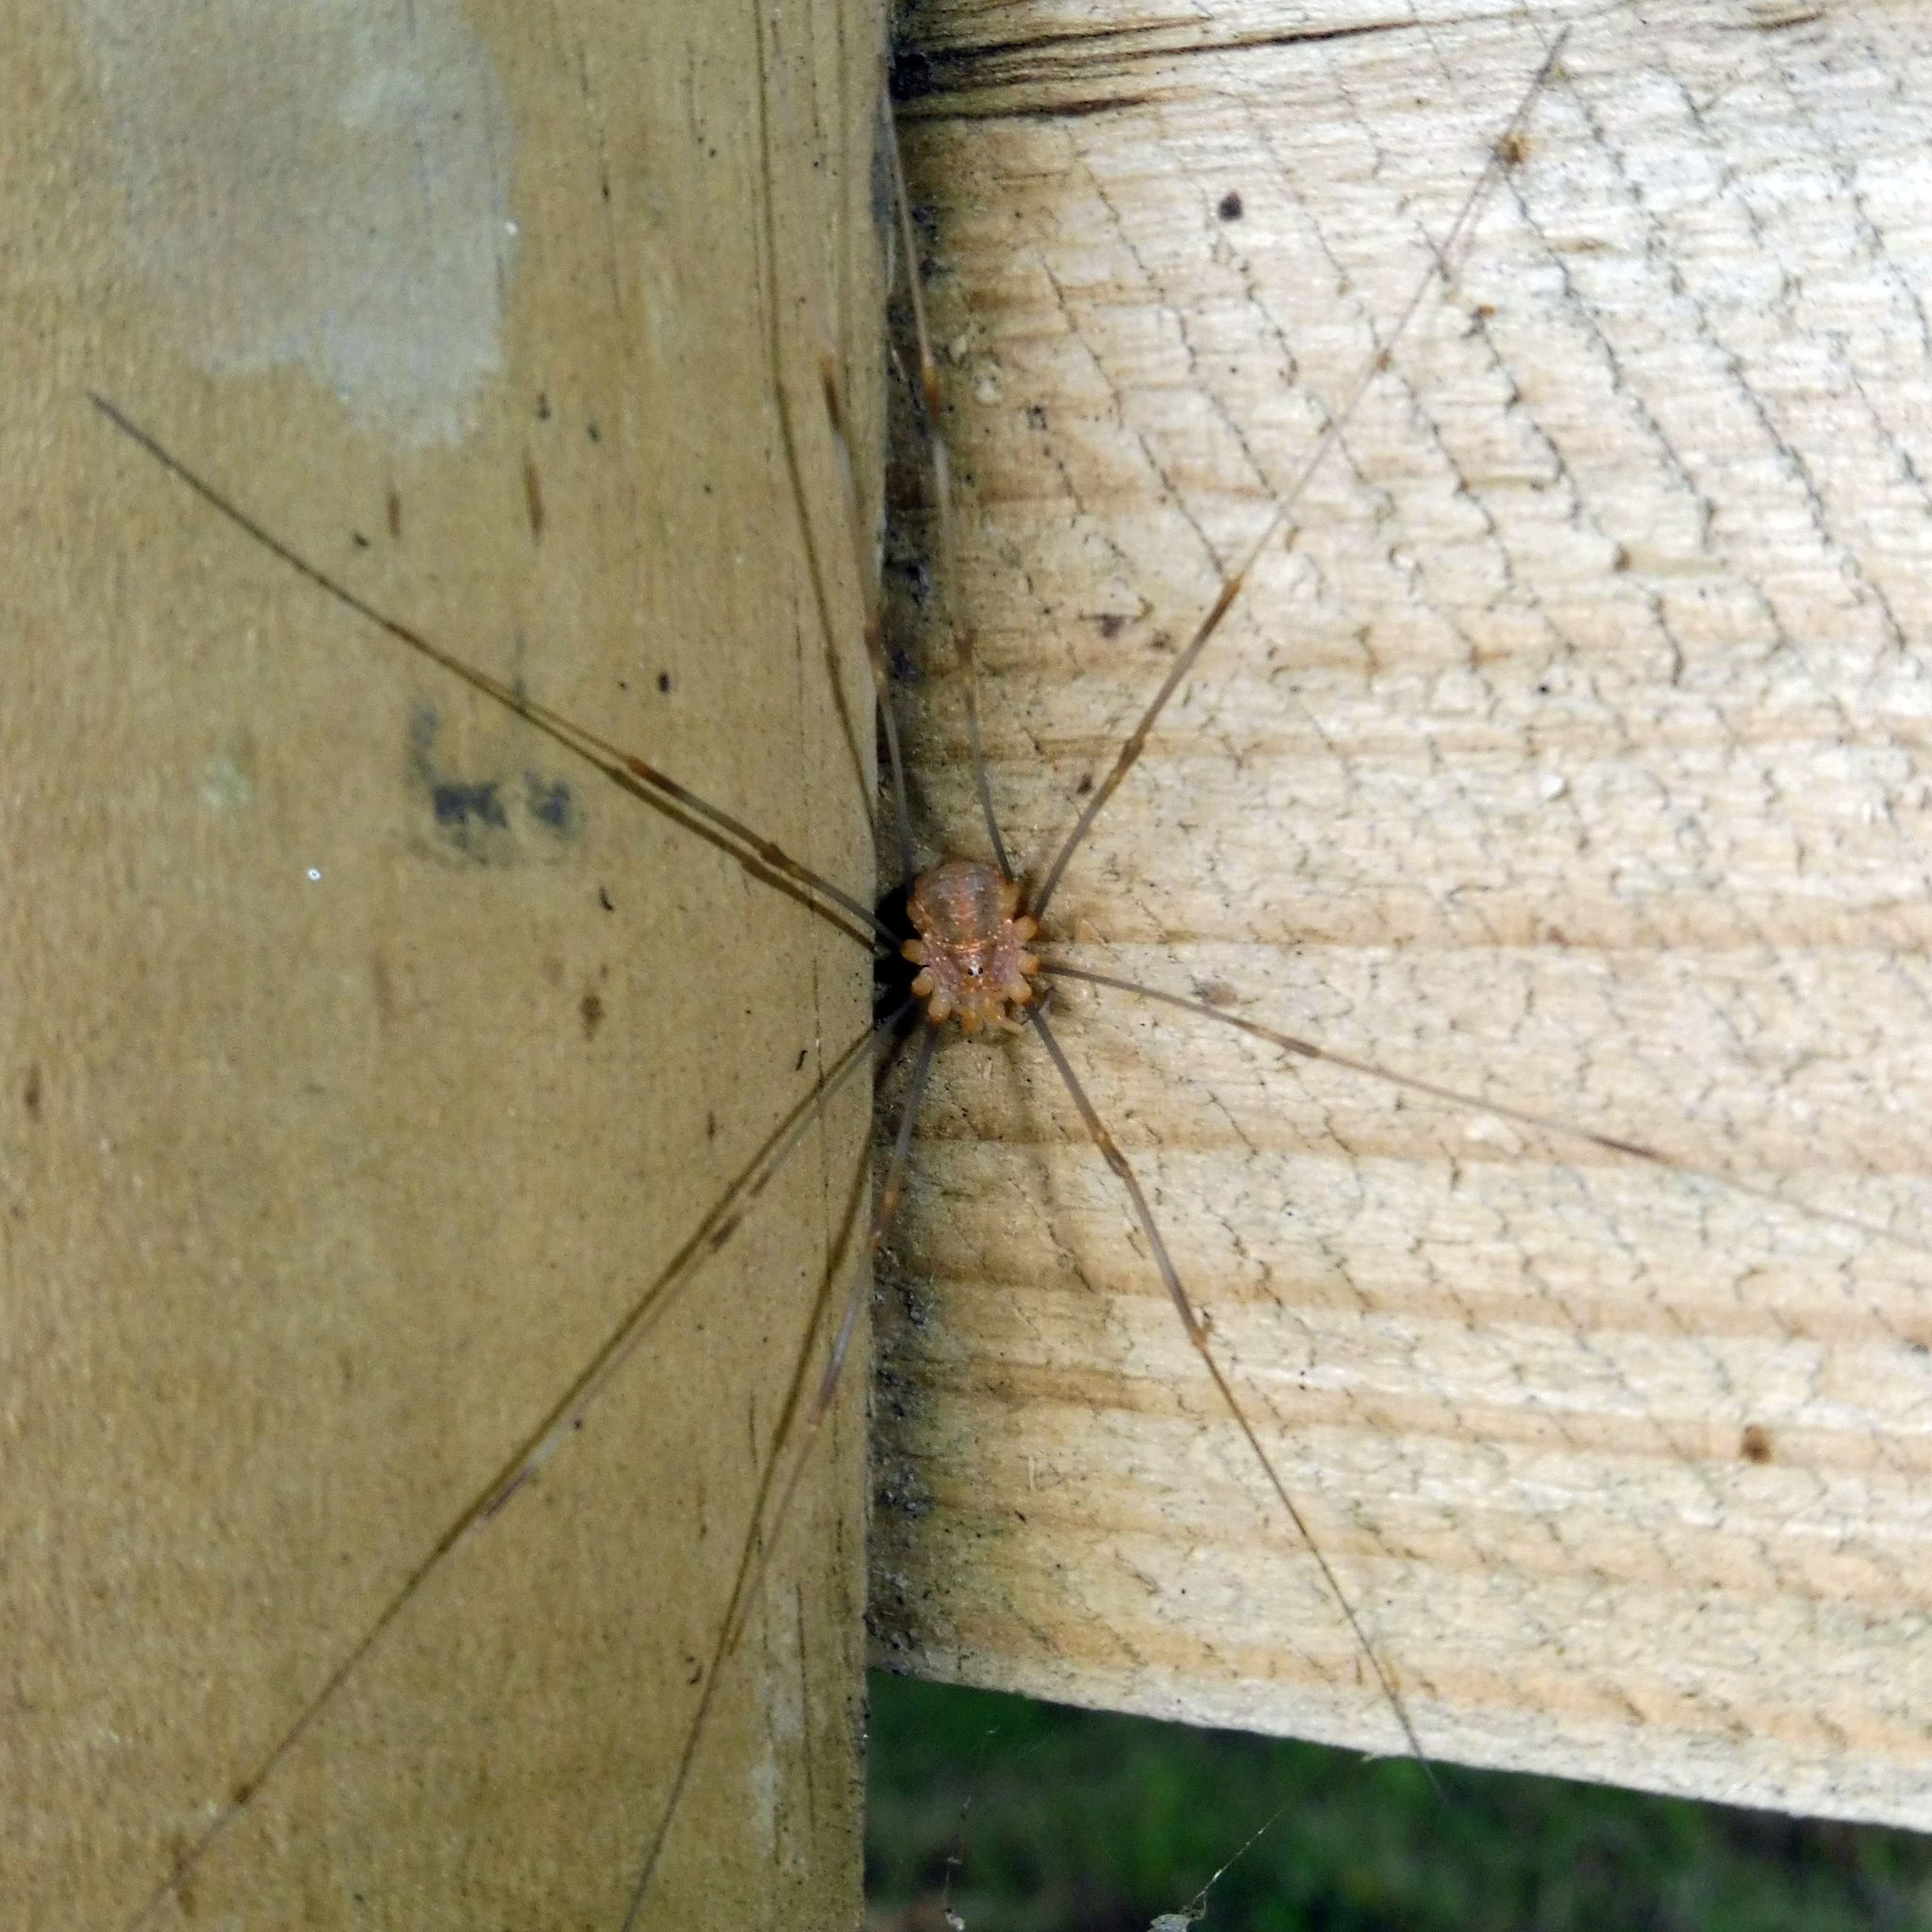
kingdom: Animalia
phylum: Arthropoda
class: Arachnida
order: Opiliones
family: Phalangiidae
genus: Opilio
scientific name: Opilio canestrinii
